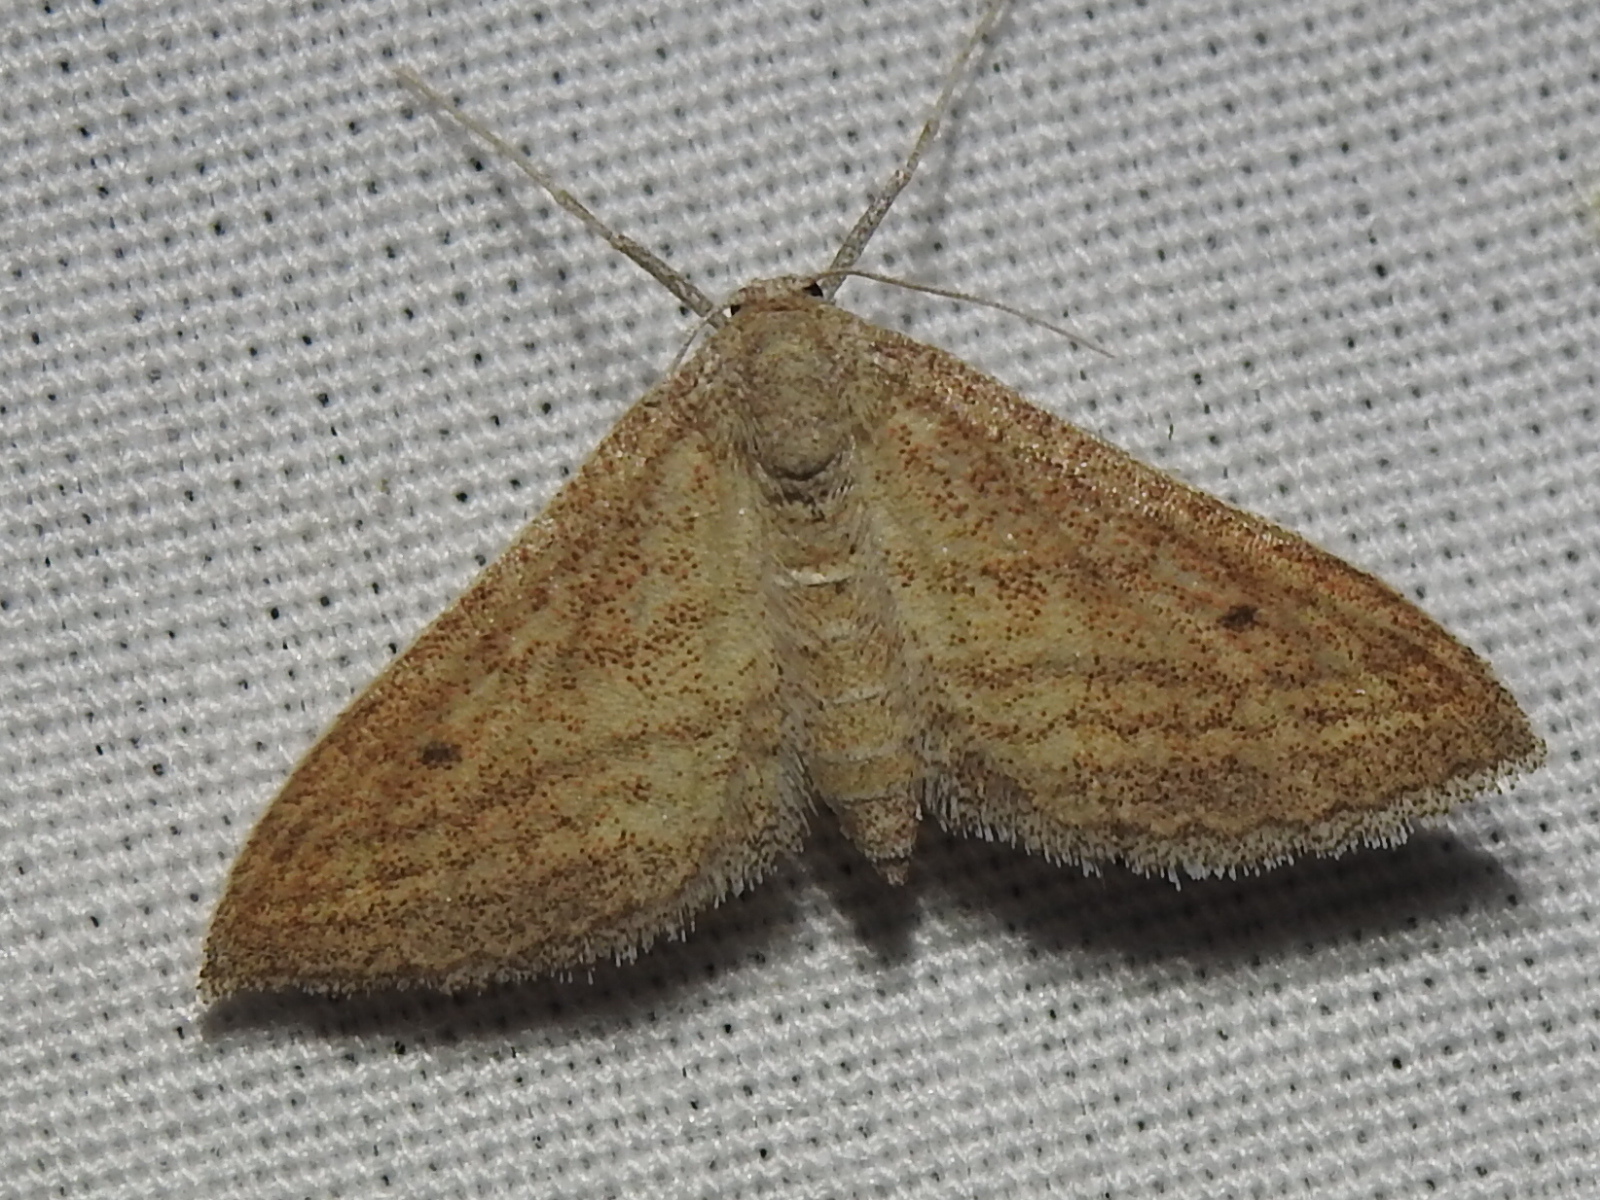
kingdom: Animalia
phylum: Arthropoda
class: Insecta
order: Lepidoptera
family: Geometridae
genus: Lobocleta
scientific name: Lobocleta plemyraria
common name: Straight-lined wave
